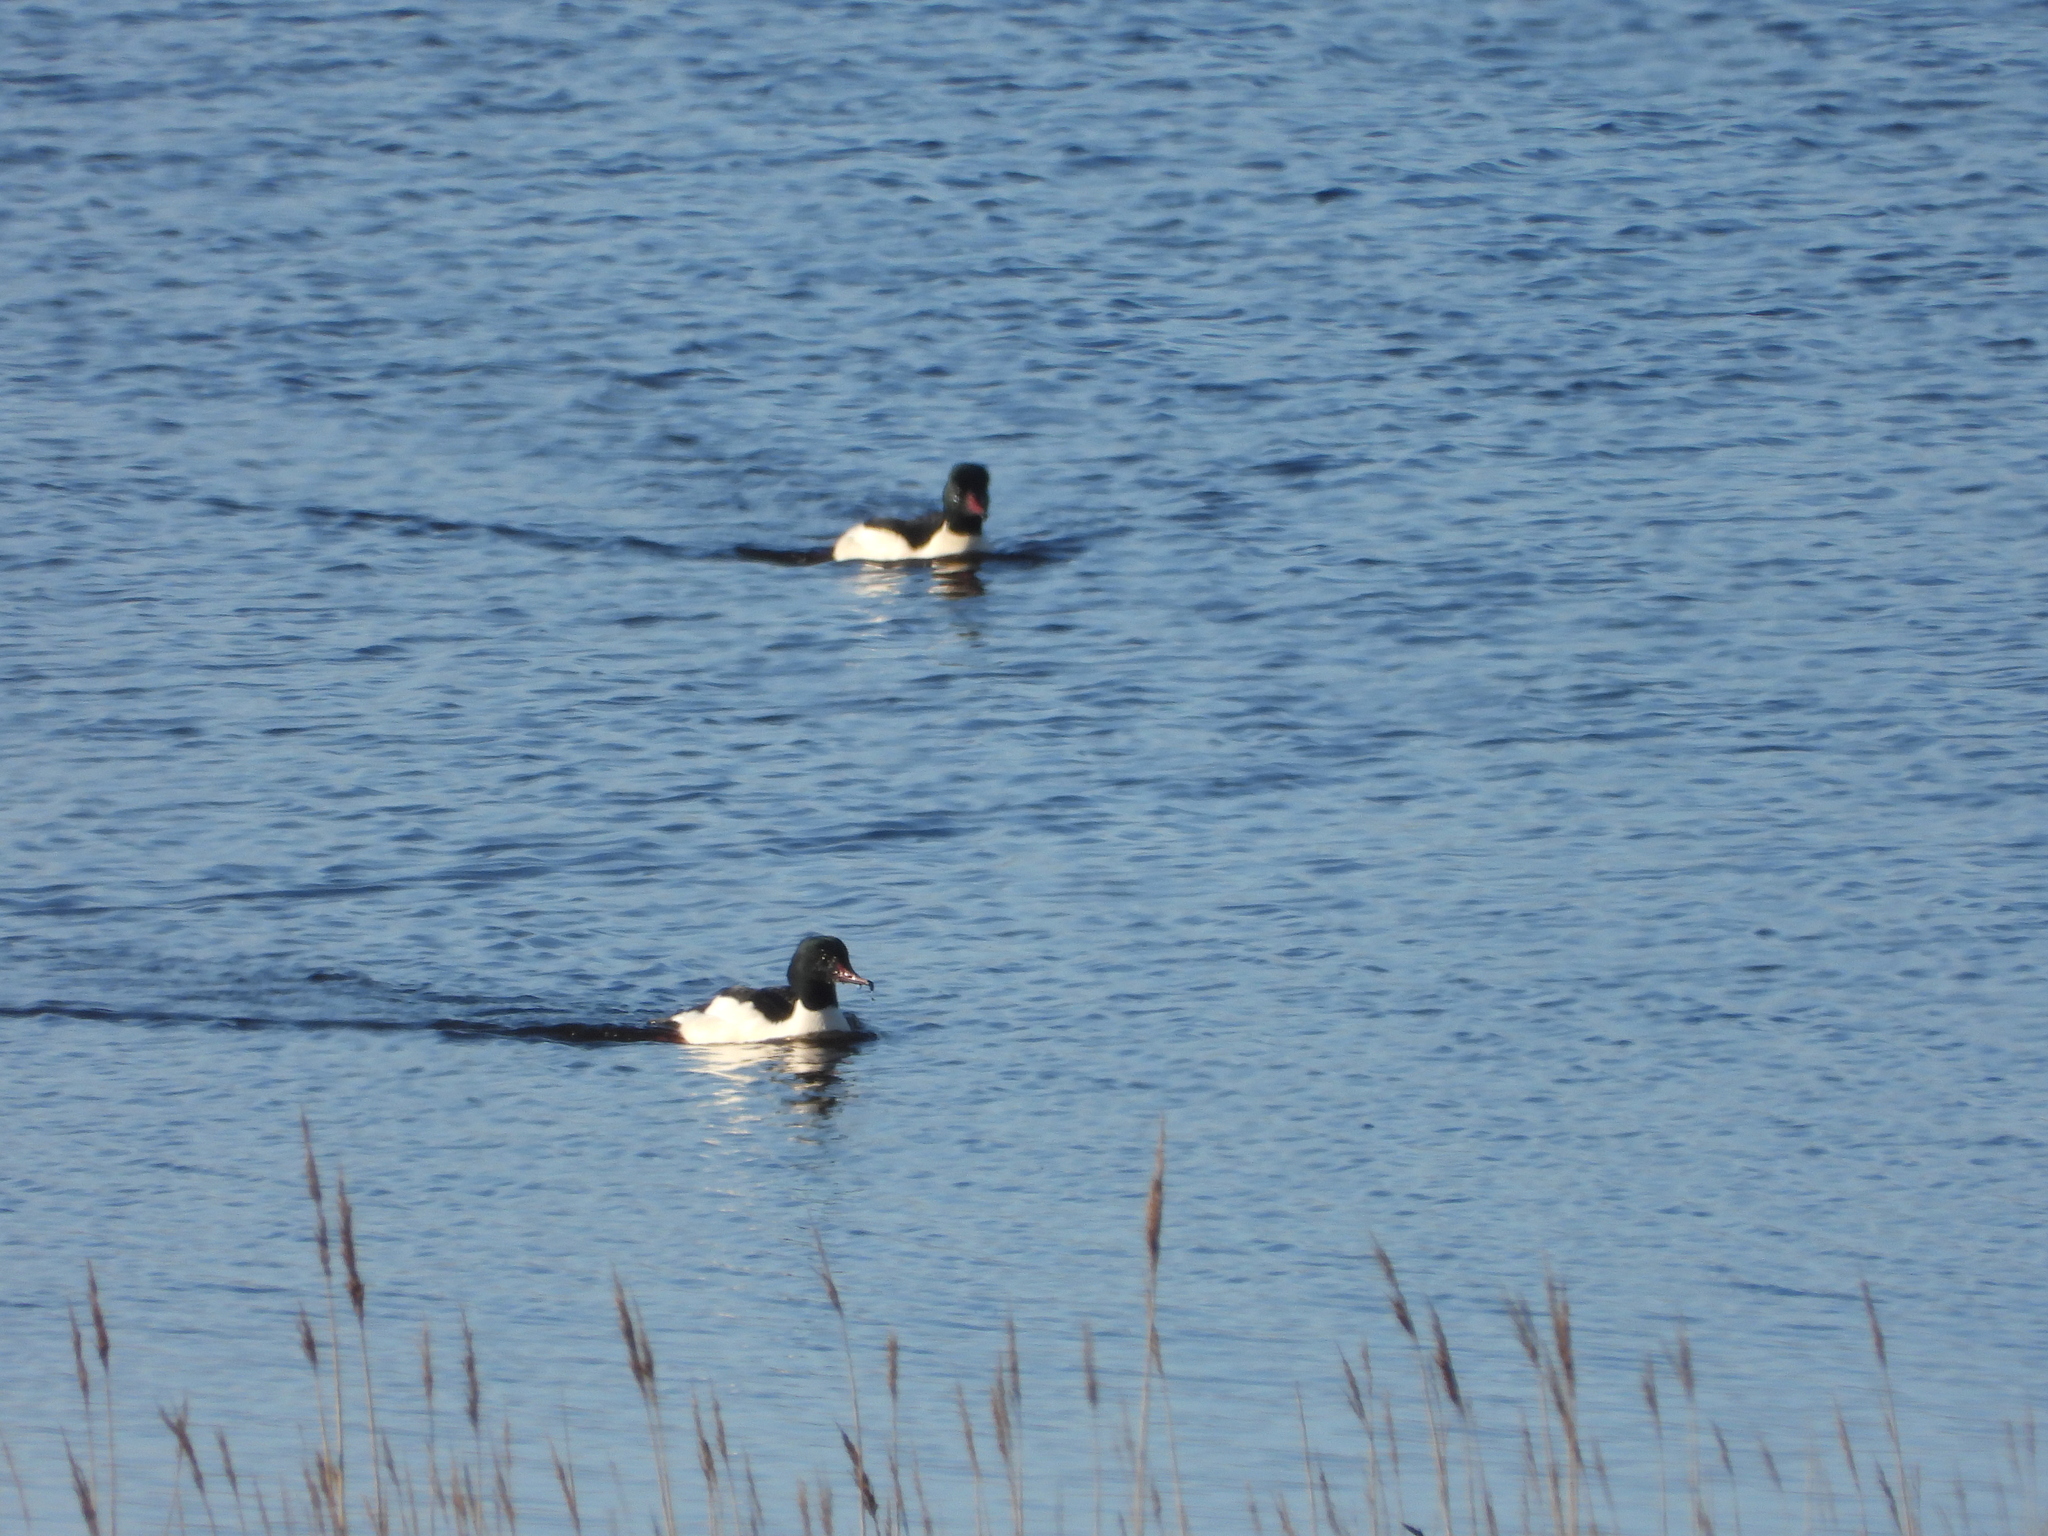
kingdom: Animalia
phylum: Chordata
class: Aves
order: Anseriformes
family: Anatidae
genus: Mergus
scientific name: Mergus merganser
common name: Common merganser
